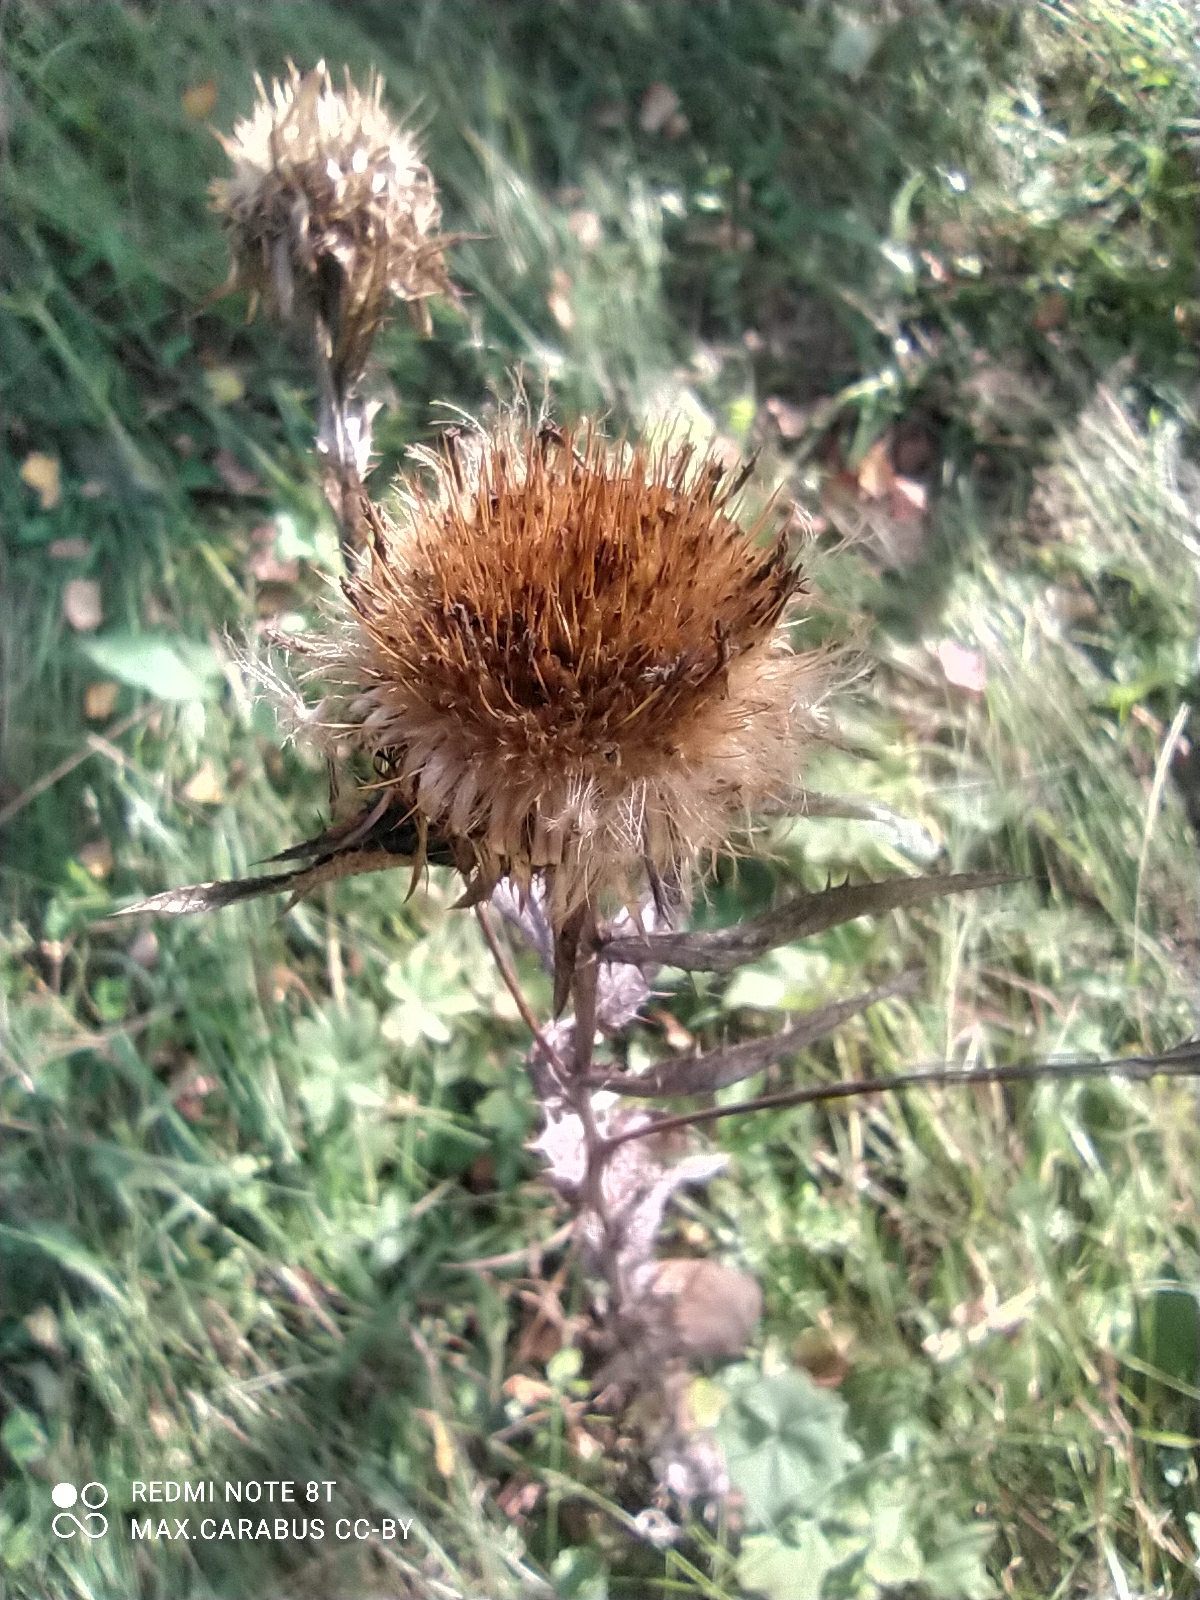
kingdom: Plantae
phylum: Tracheophyta
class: Magnoliopsida
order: Asterales
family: Asteraceae
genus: Carlina
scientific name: Carlina biebersteinii
